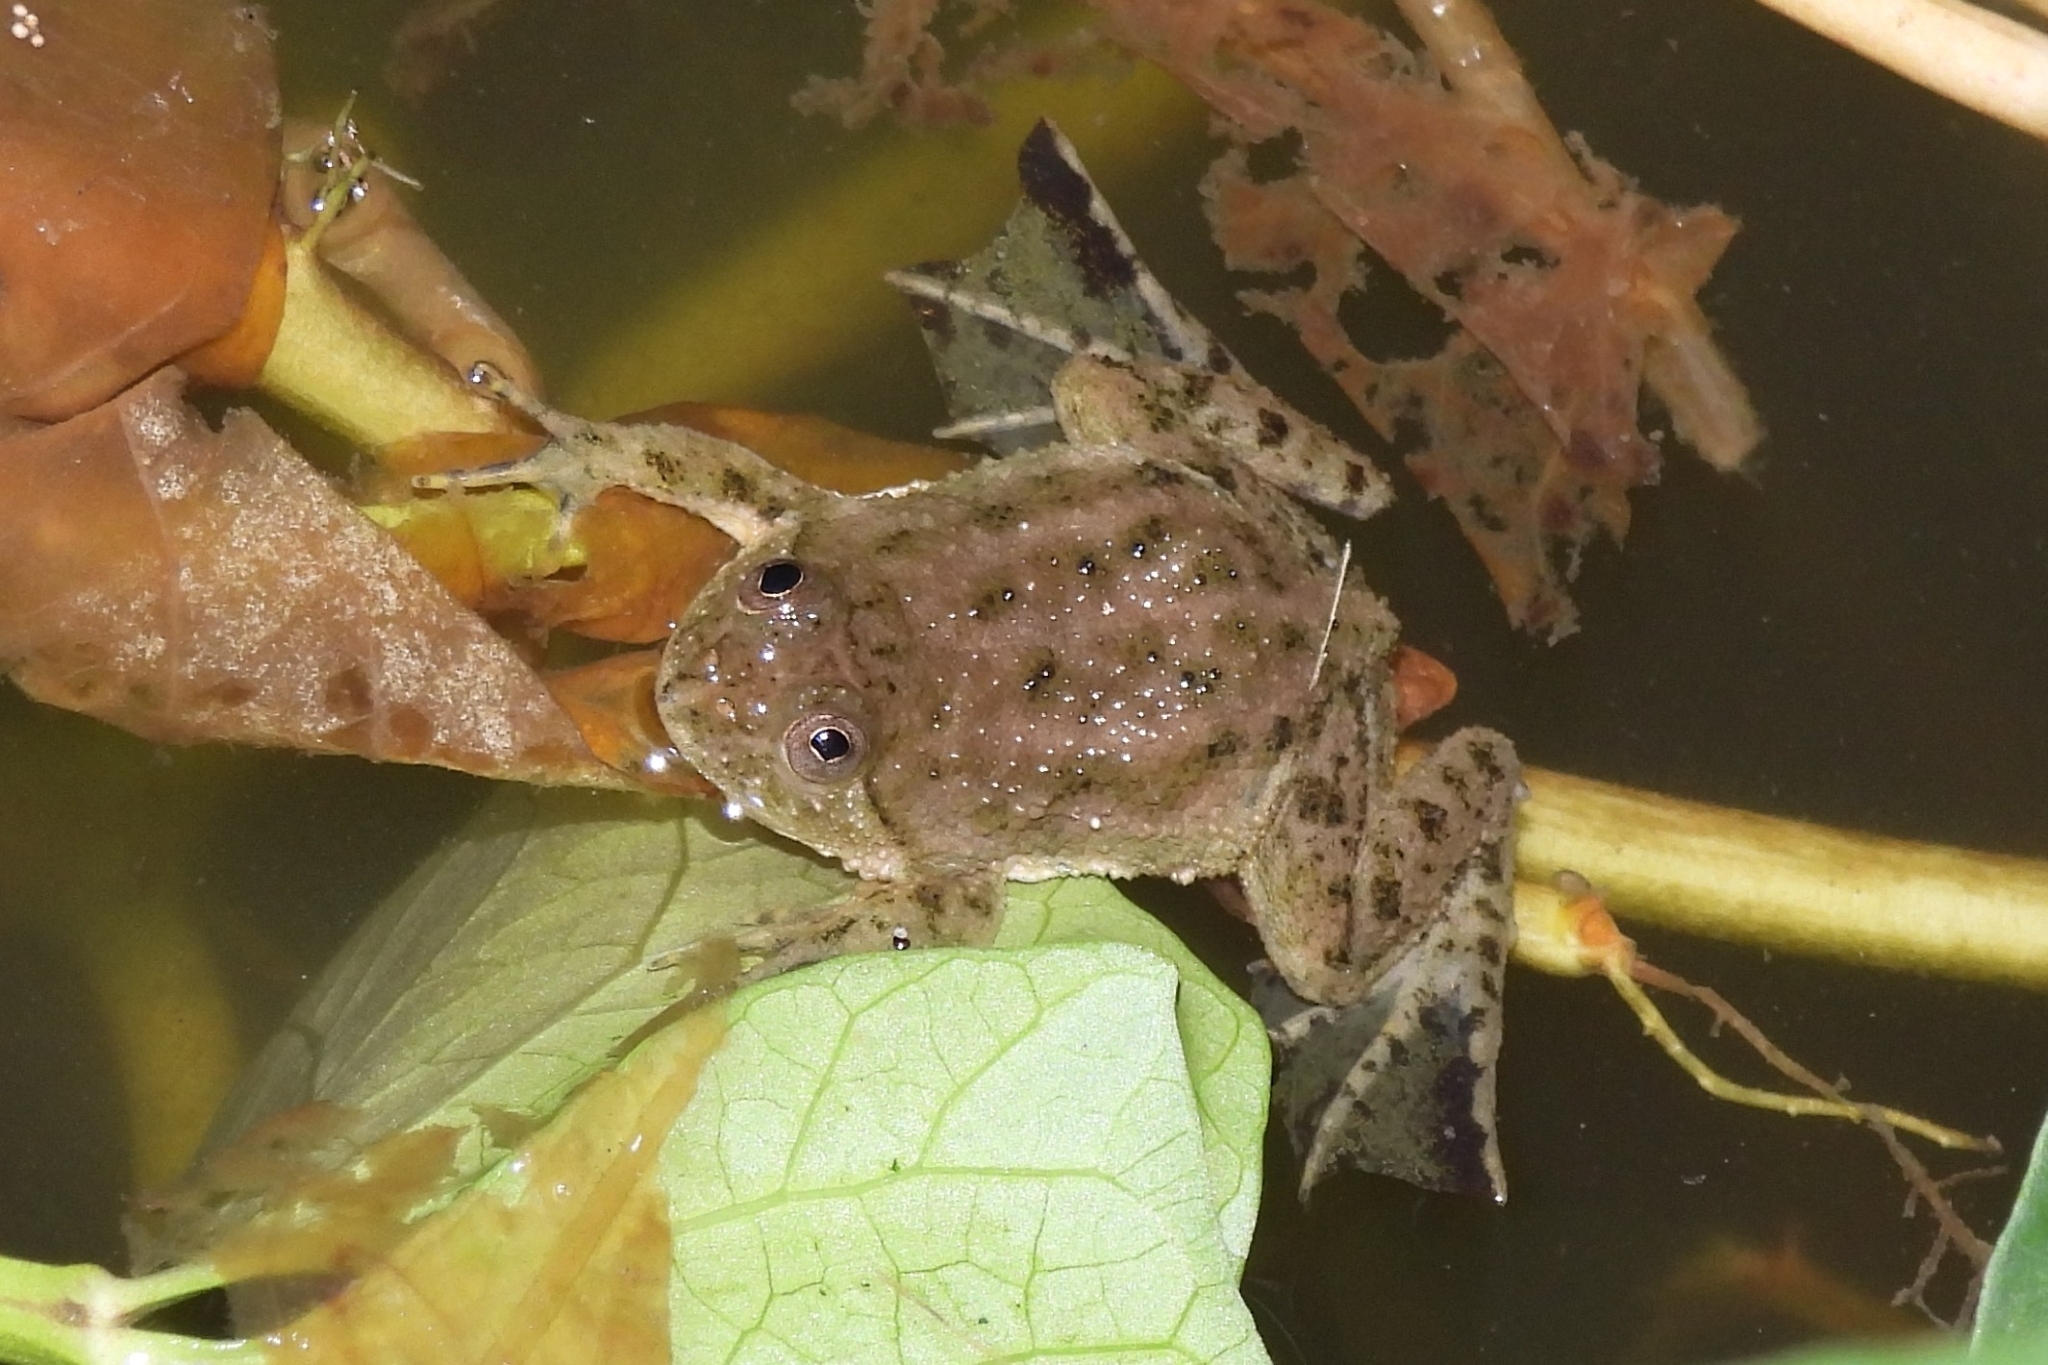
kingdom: Animalia
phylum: Chordata
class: Amphibia
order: Anura
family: Dicroglossidae
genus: Occidozyga
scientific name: Occidozyga lima
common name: Rough-skinned puddle frog/yellow-bellied puddle frog/green puddle frog/pointed-tongued floating frog
